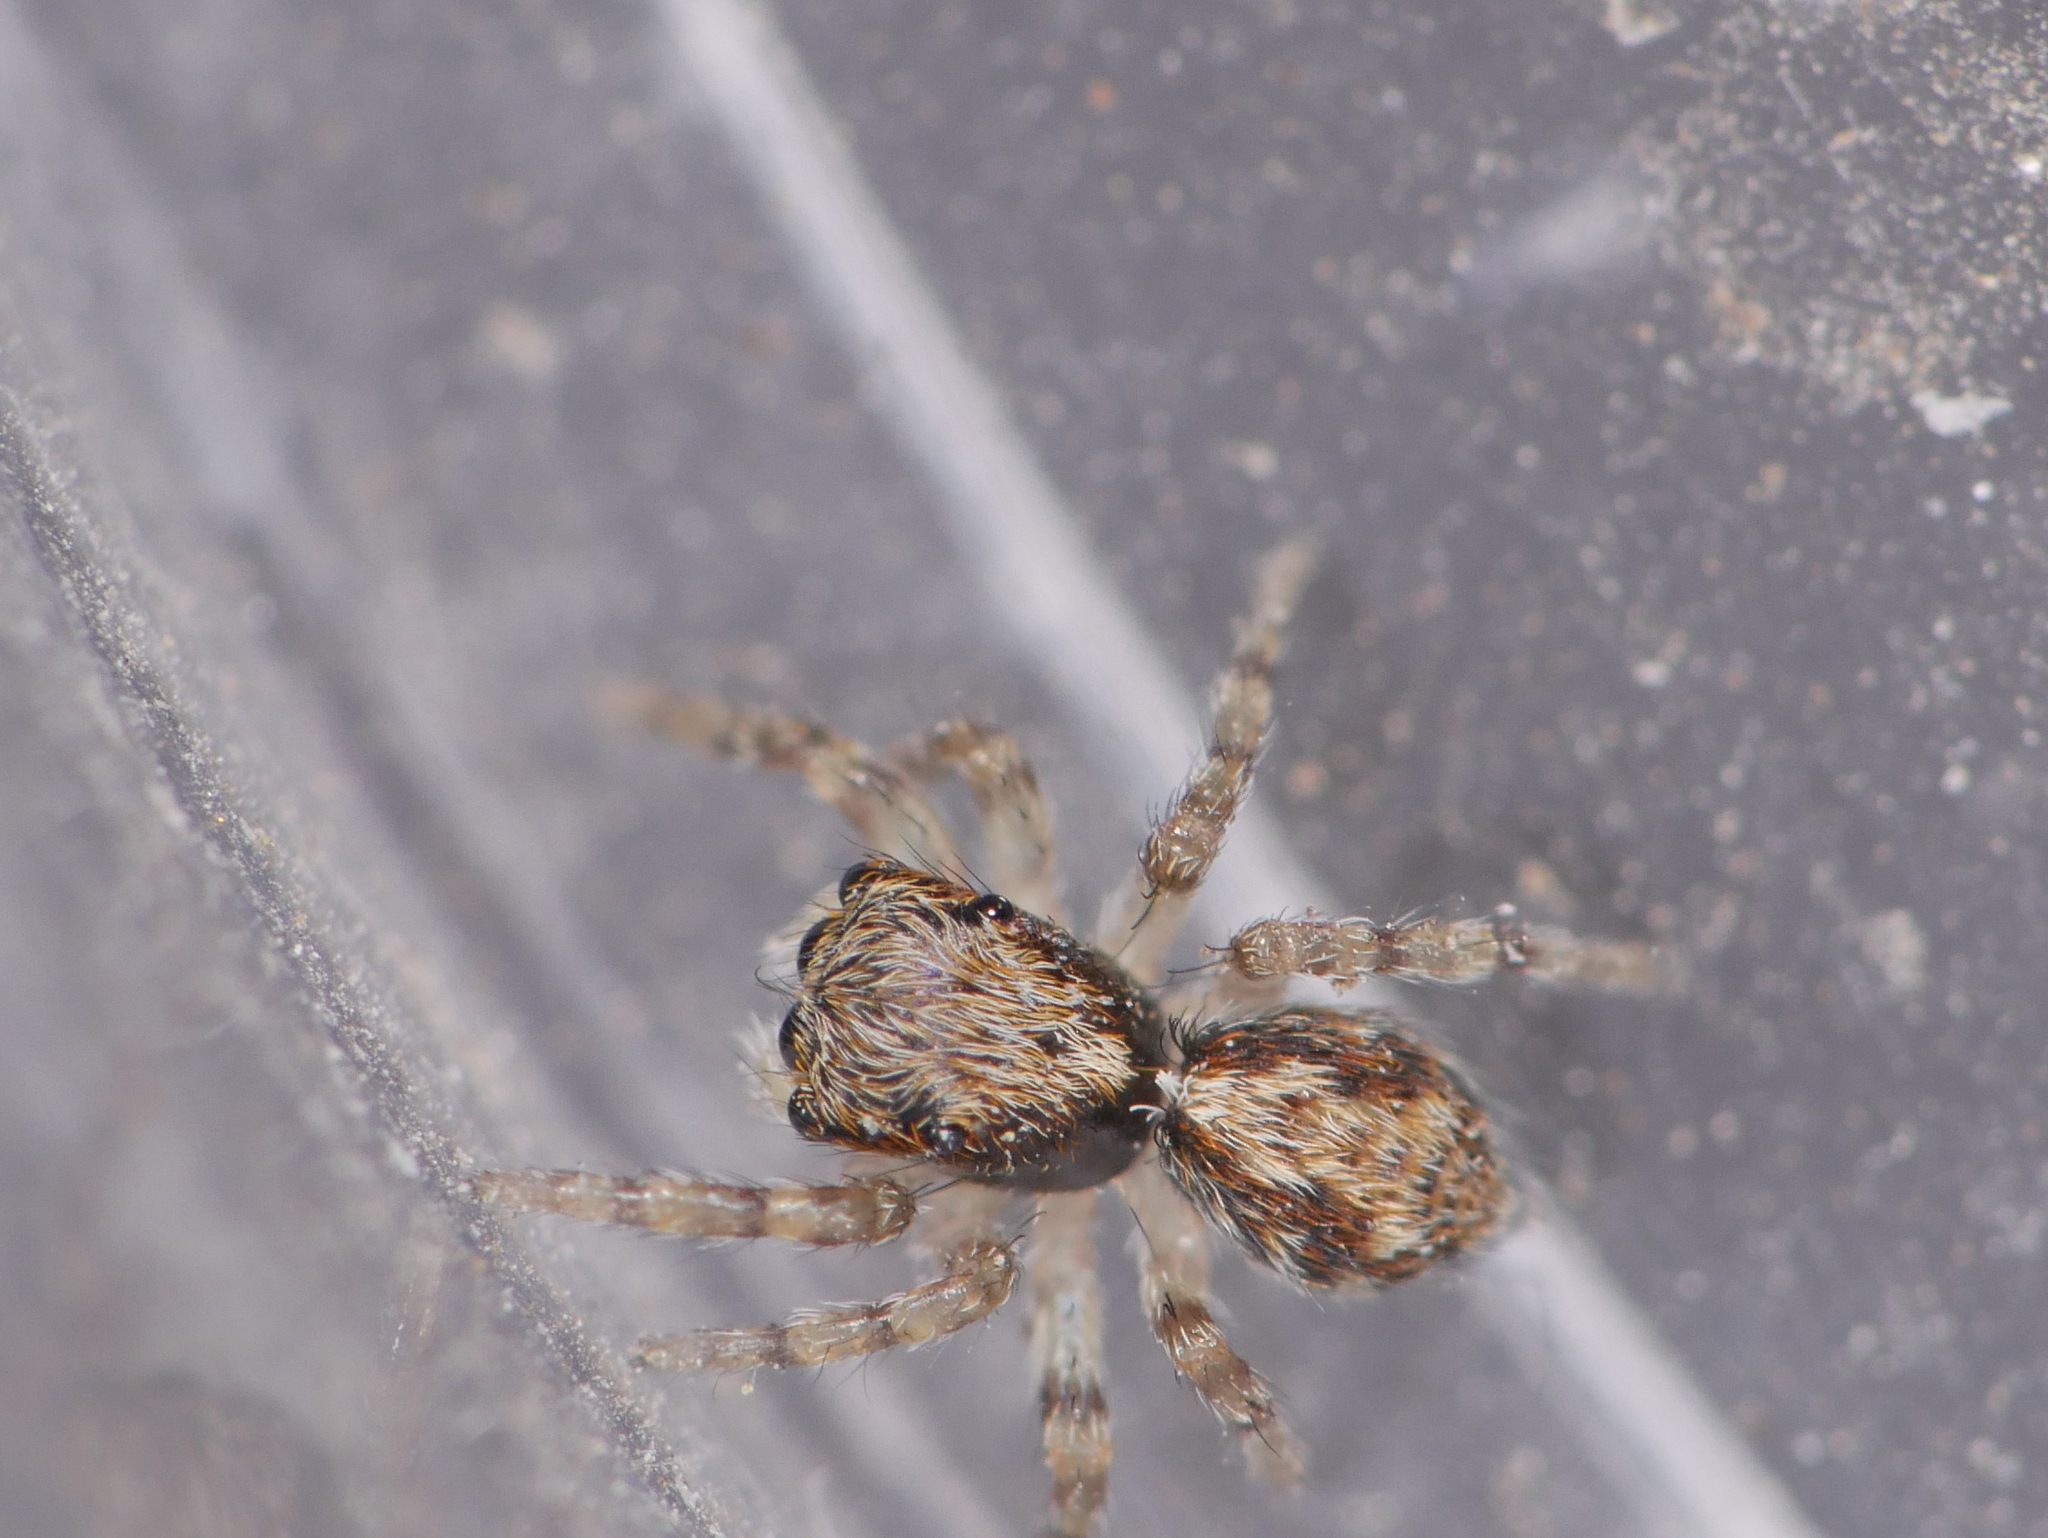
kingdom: Animalia
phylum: Arthropoda
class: Arachnida
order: Araneae
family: Salticidae
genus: Pseudeuophrys
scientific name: Pseudeuophrys lanigera
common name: Jumping spider
